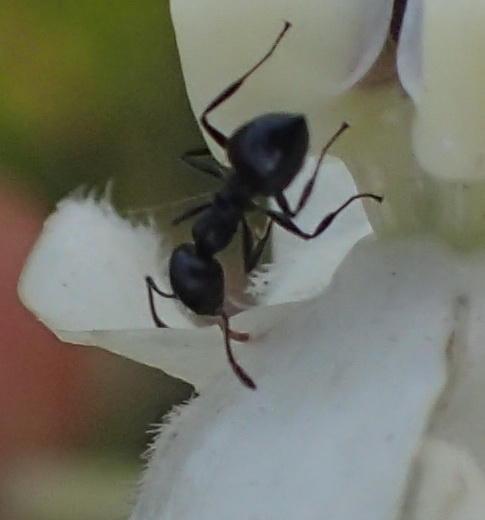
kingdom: Animalia
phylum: Arthropoda
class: Insecta
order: Hymenoptera
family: Formicidae
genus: Crematogaster
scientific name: Crematogaster peringueyi
